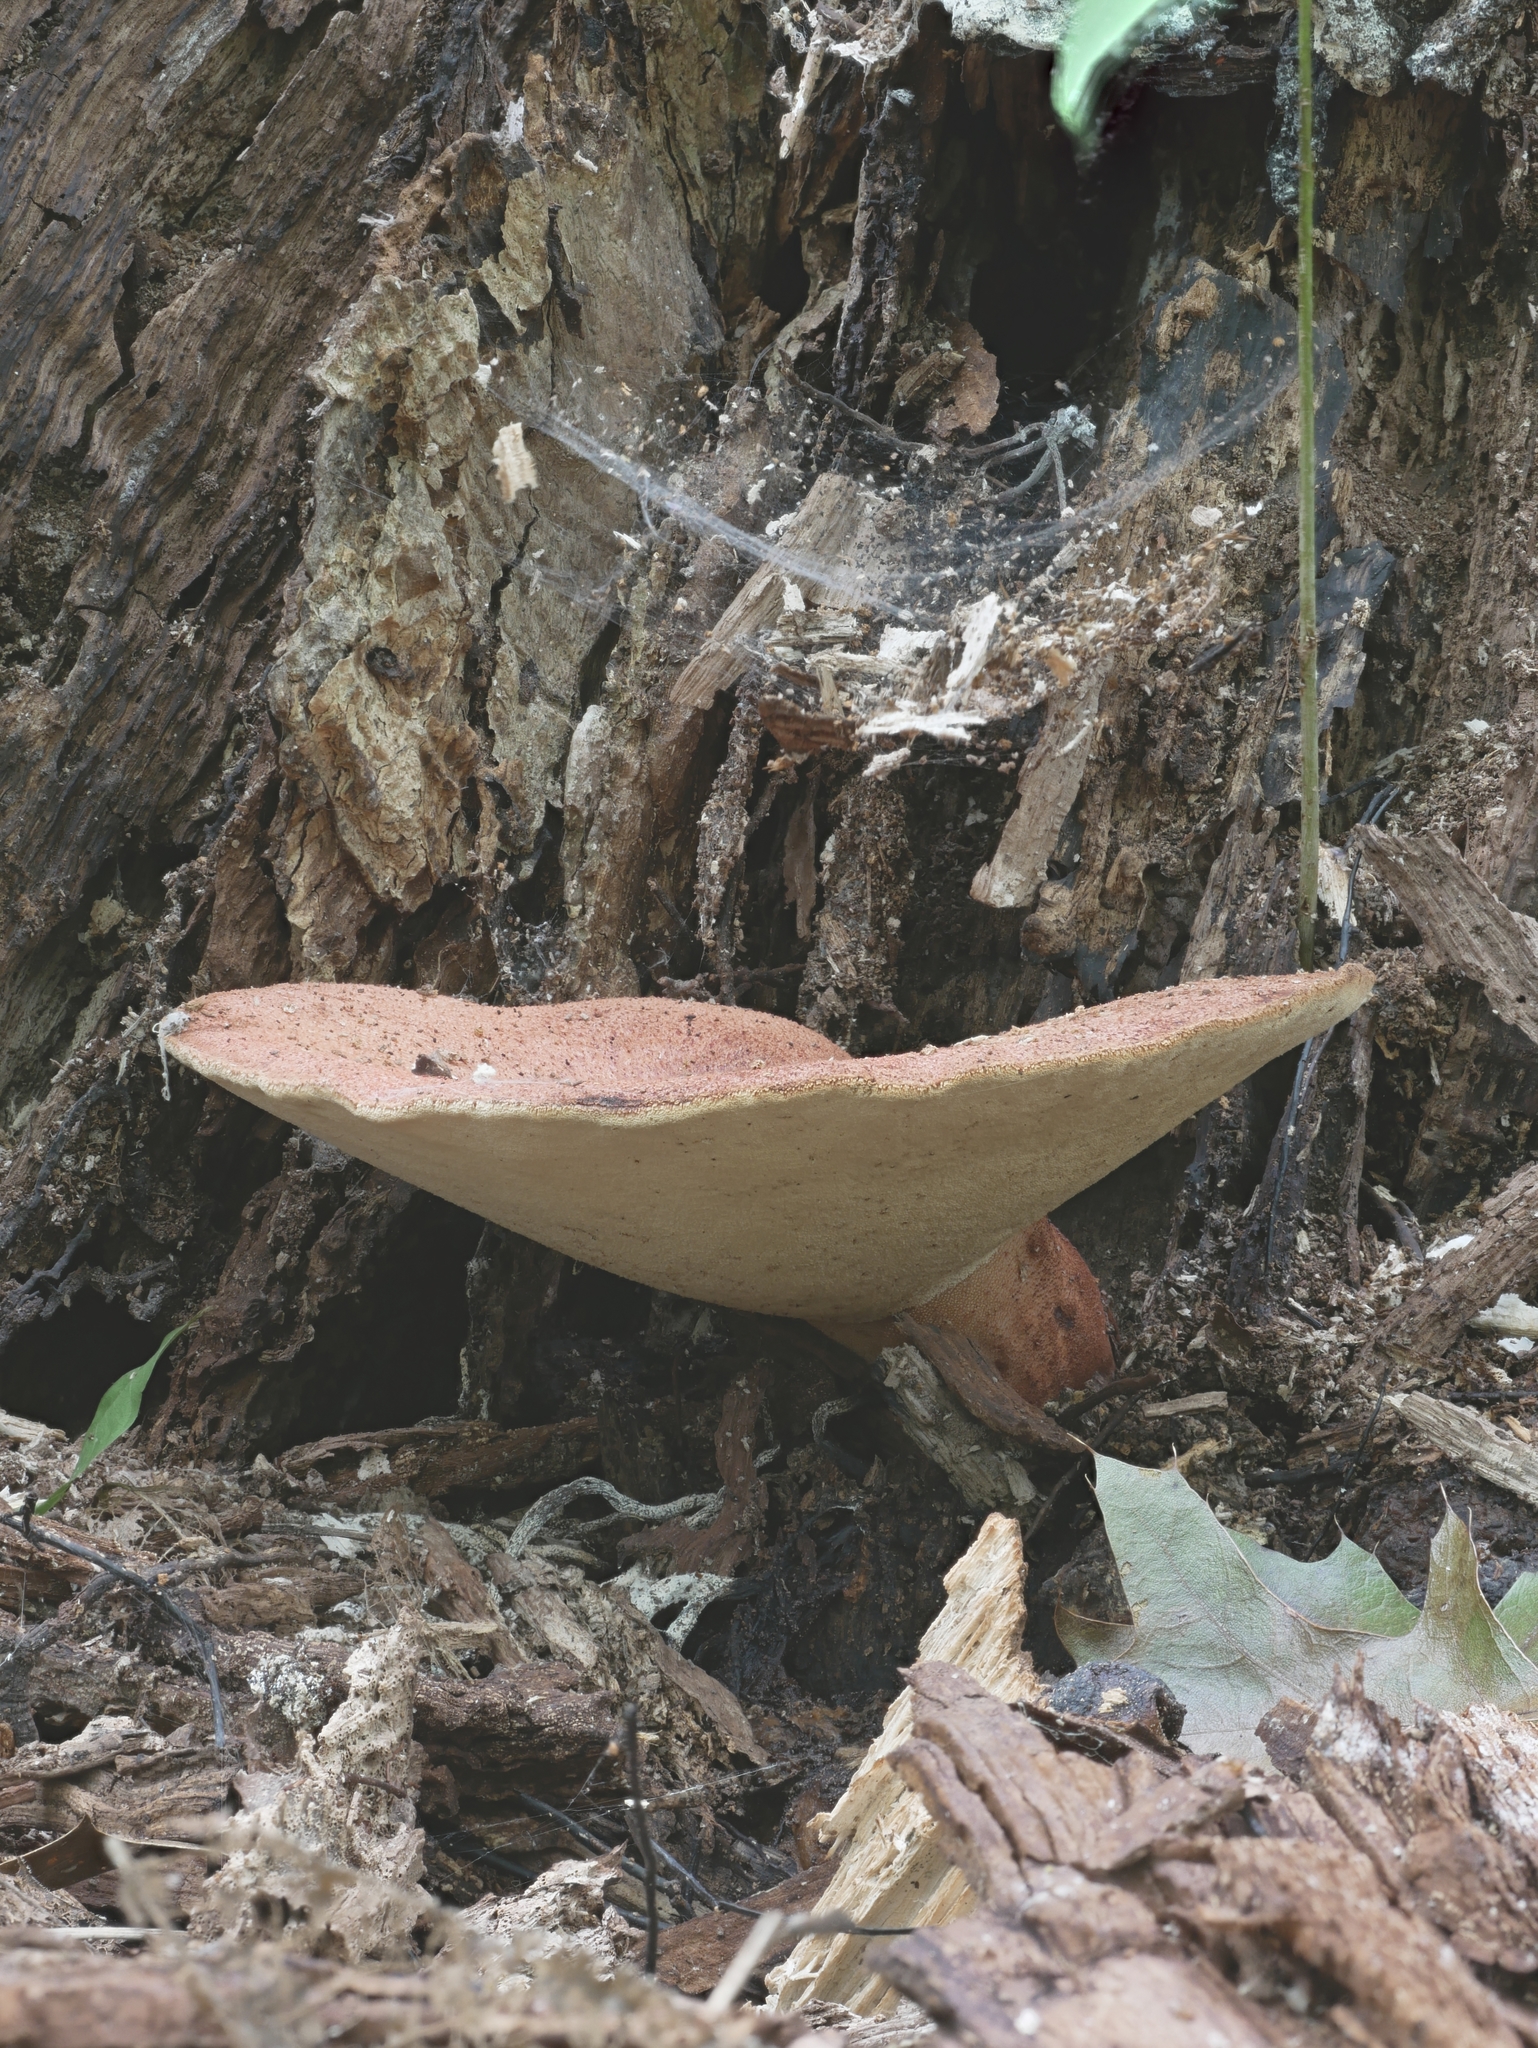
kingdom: Fungi
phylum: Basidiomycota
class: Agaricomycetes
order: Agaricales
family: Fistulinaceae
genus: Fistulina
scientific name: Fistulina hepatica
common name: Beef-steak fungus
